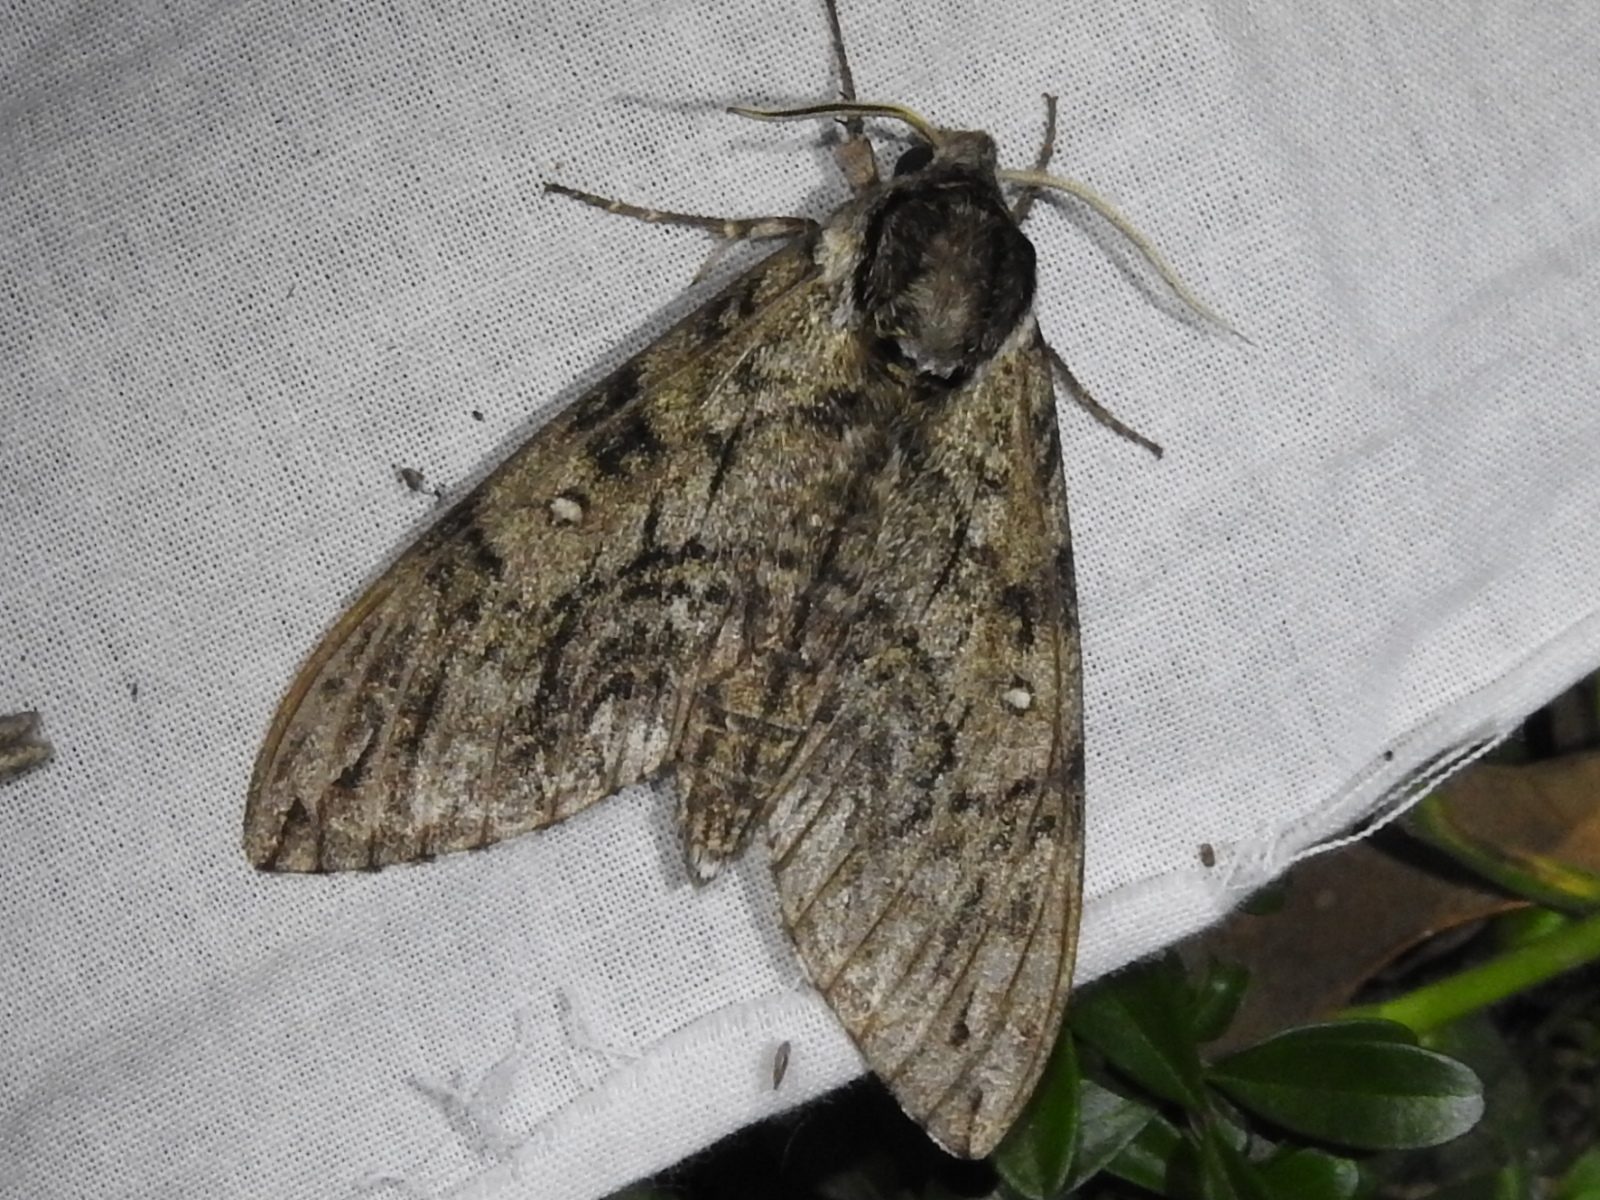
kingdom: Animalia
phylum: Arthropoda
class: Insecta
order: Lepidoptera
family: Sphingidae
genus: Ceratomia
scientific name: Ceratomia undulosa
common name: Waved sphinx
